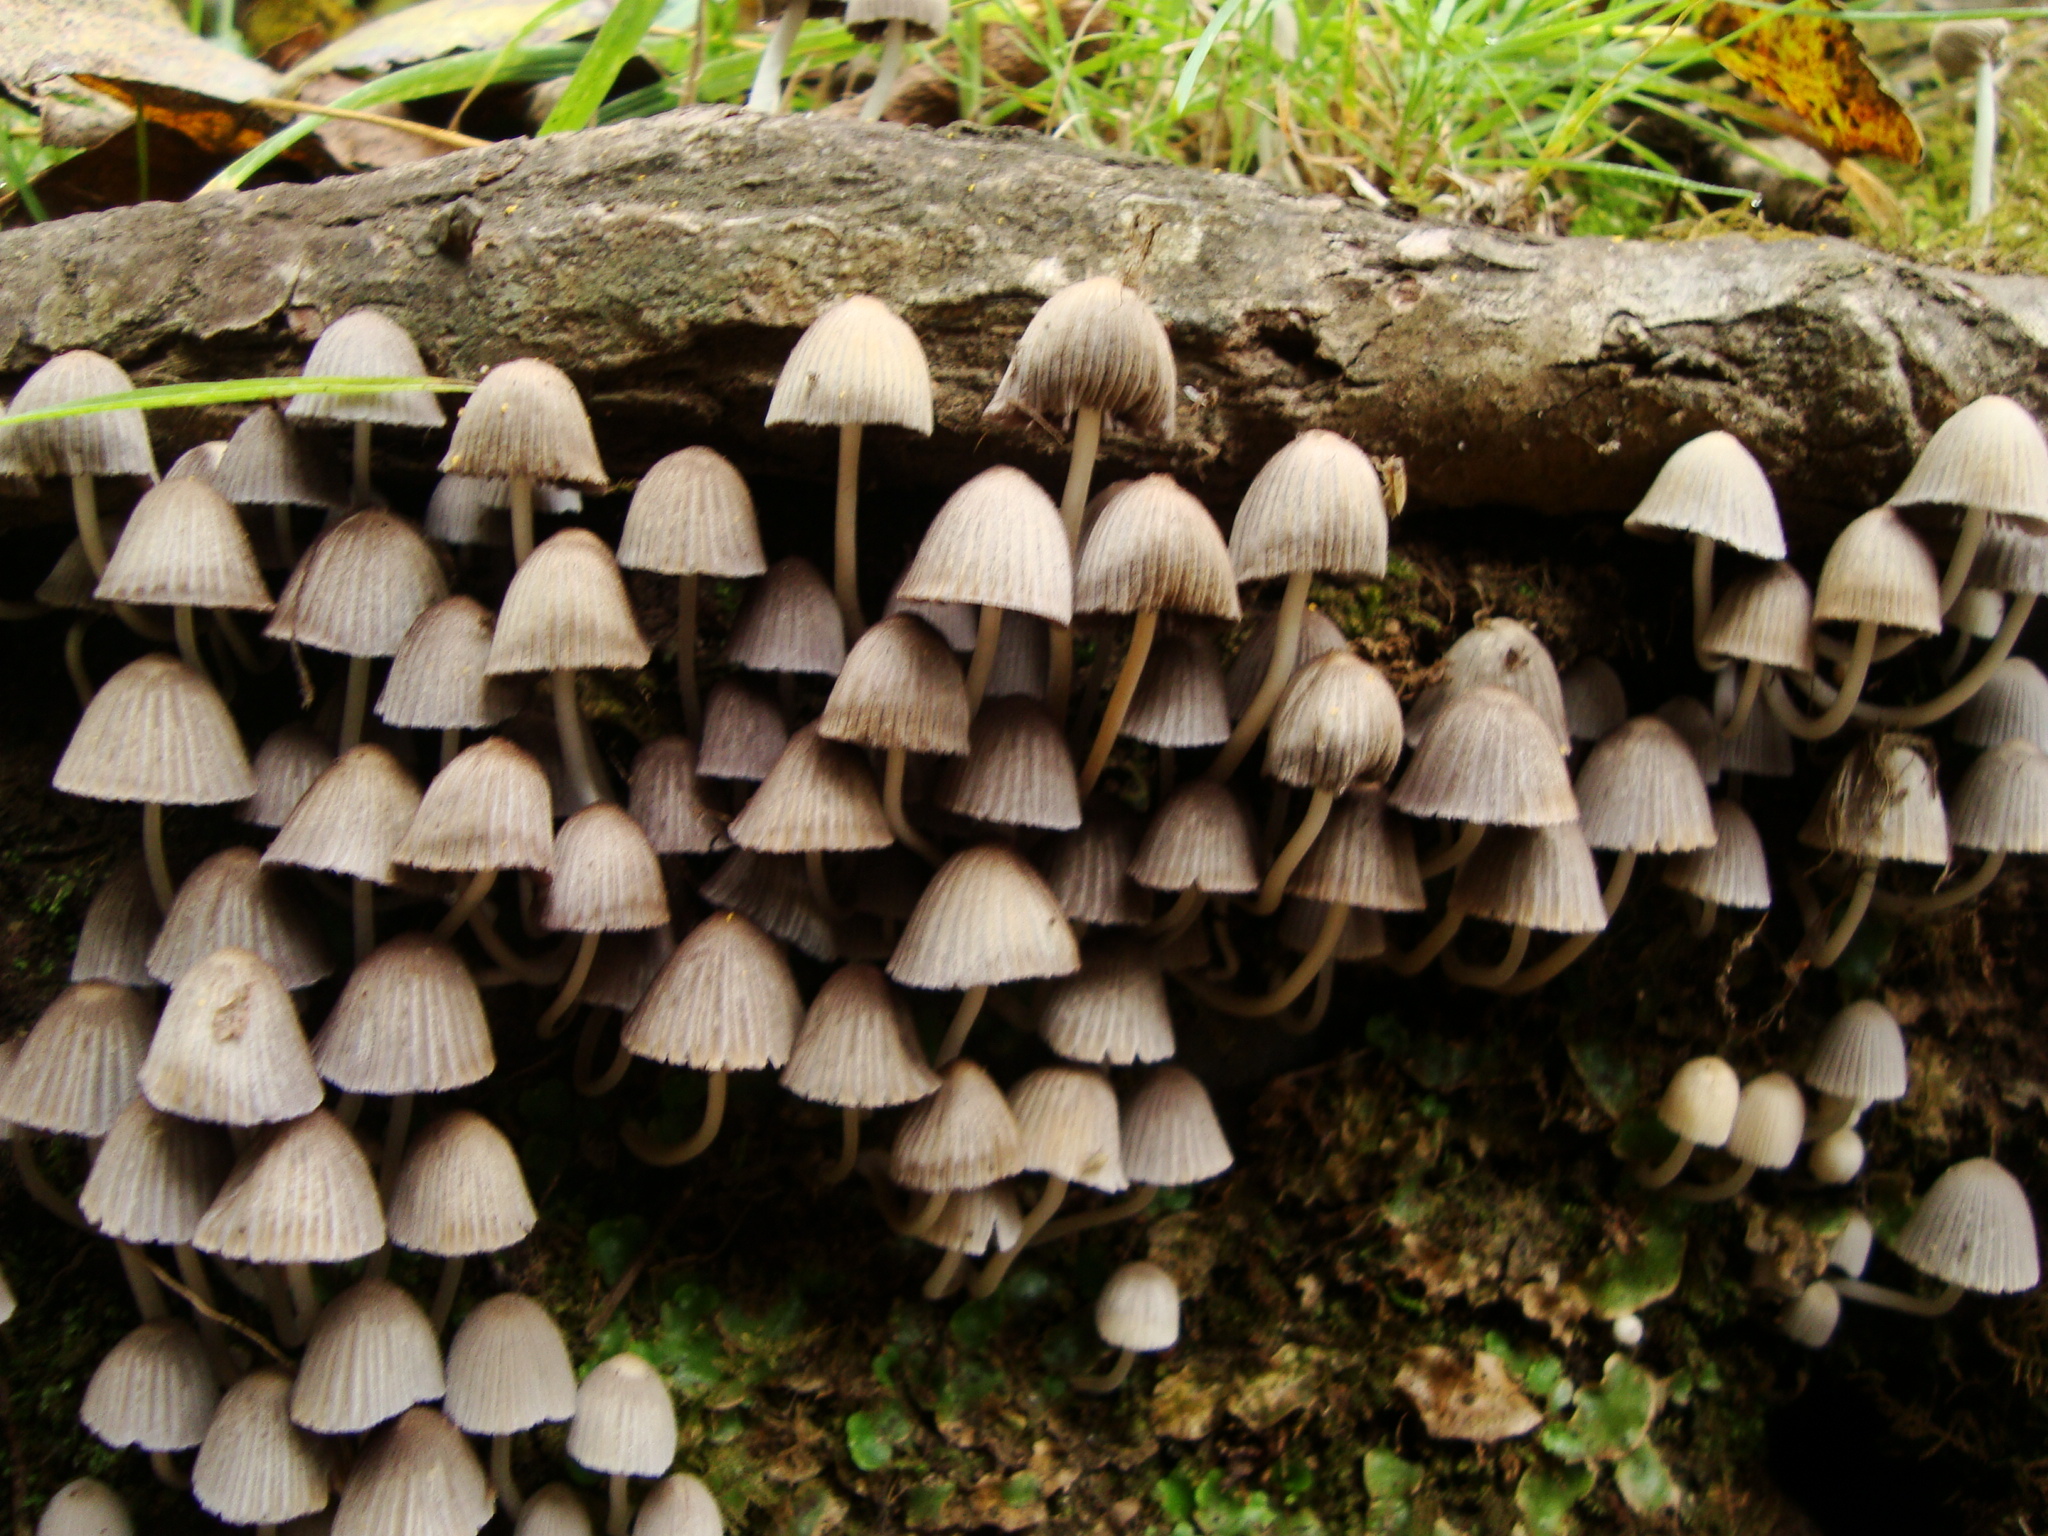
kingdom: Fungi
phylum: Basidiomycota
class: Agaricomycetes
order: Agaricales
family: Psathyrellaceae
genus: Coprinellus
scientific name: Coprinellus disseminatus
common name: Fairies' bonnets
